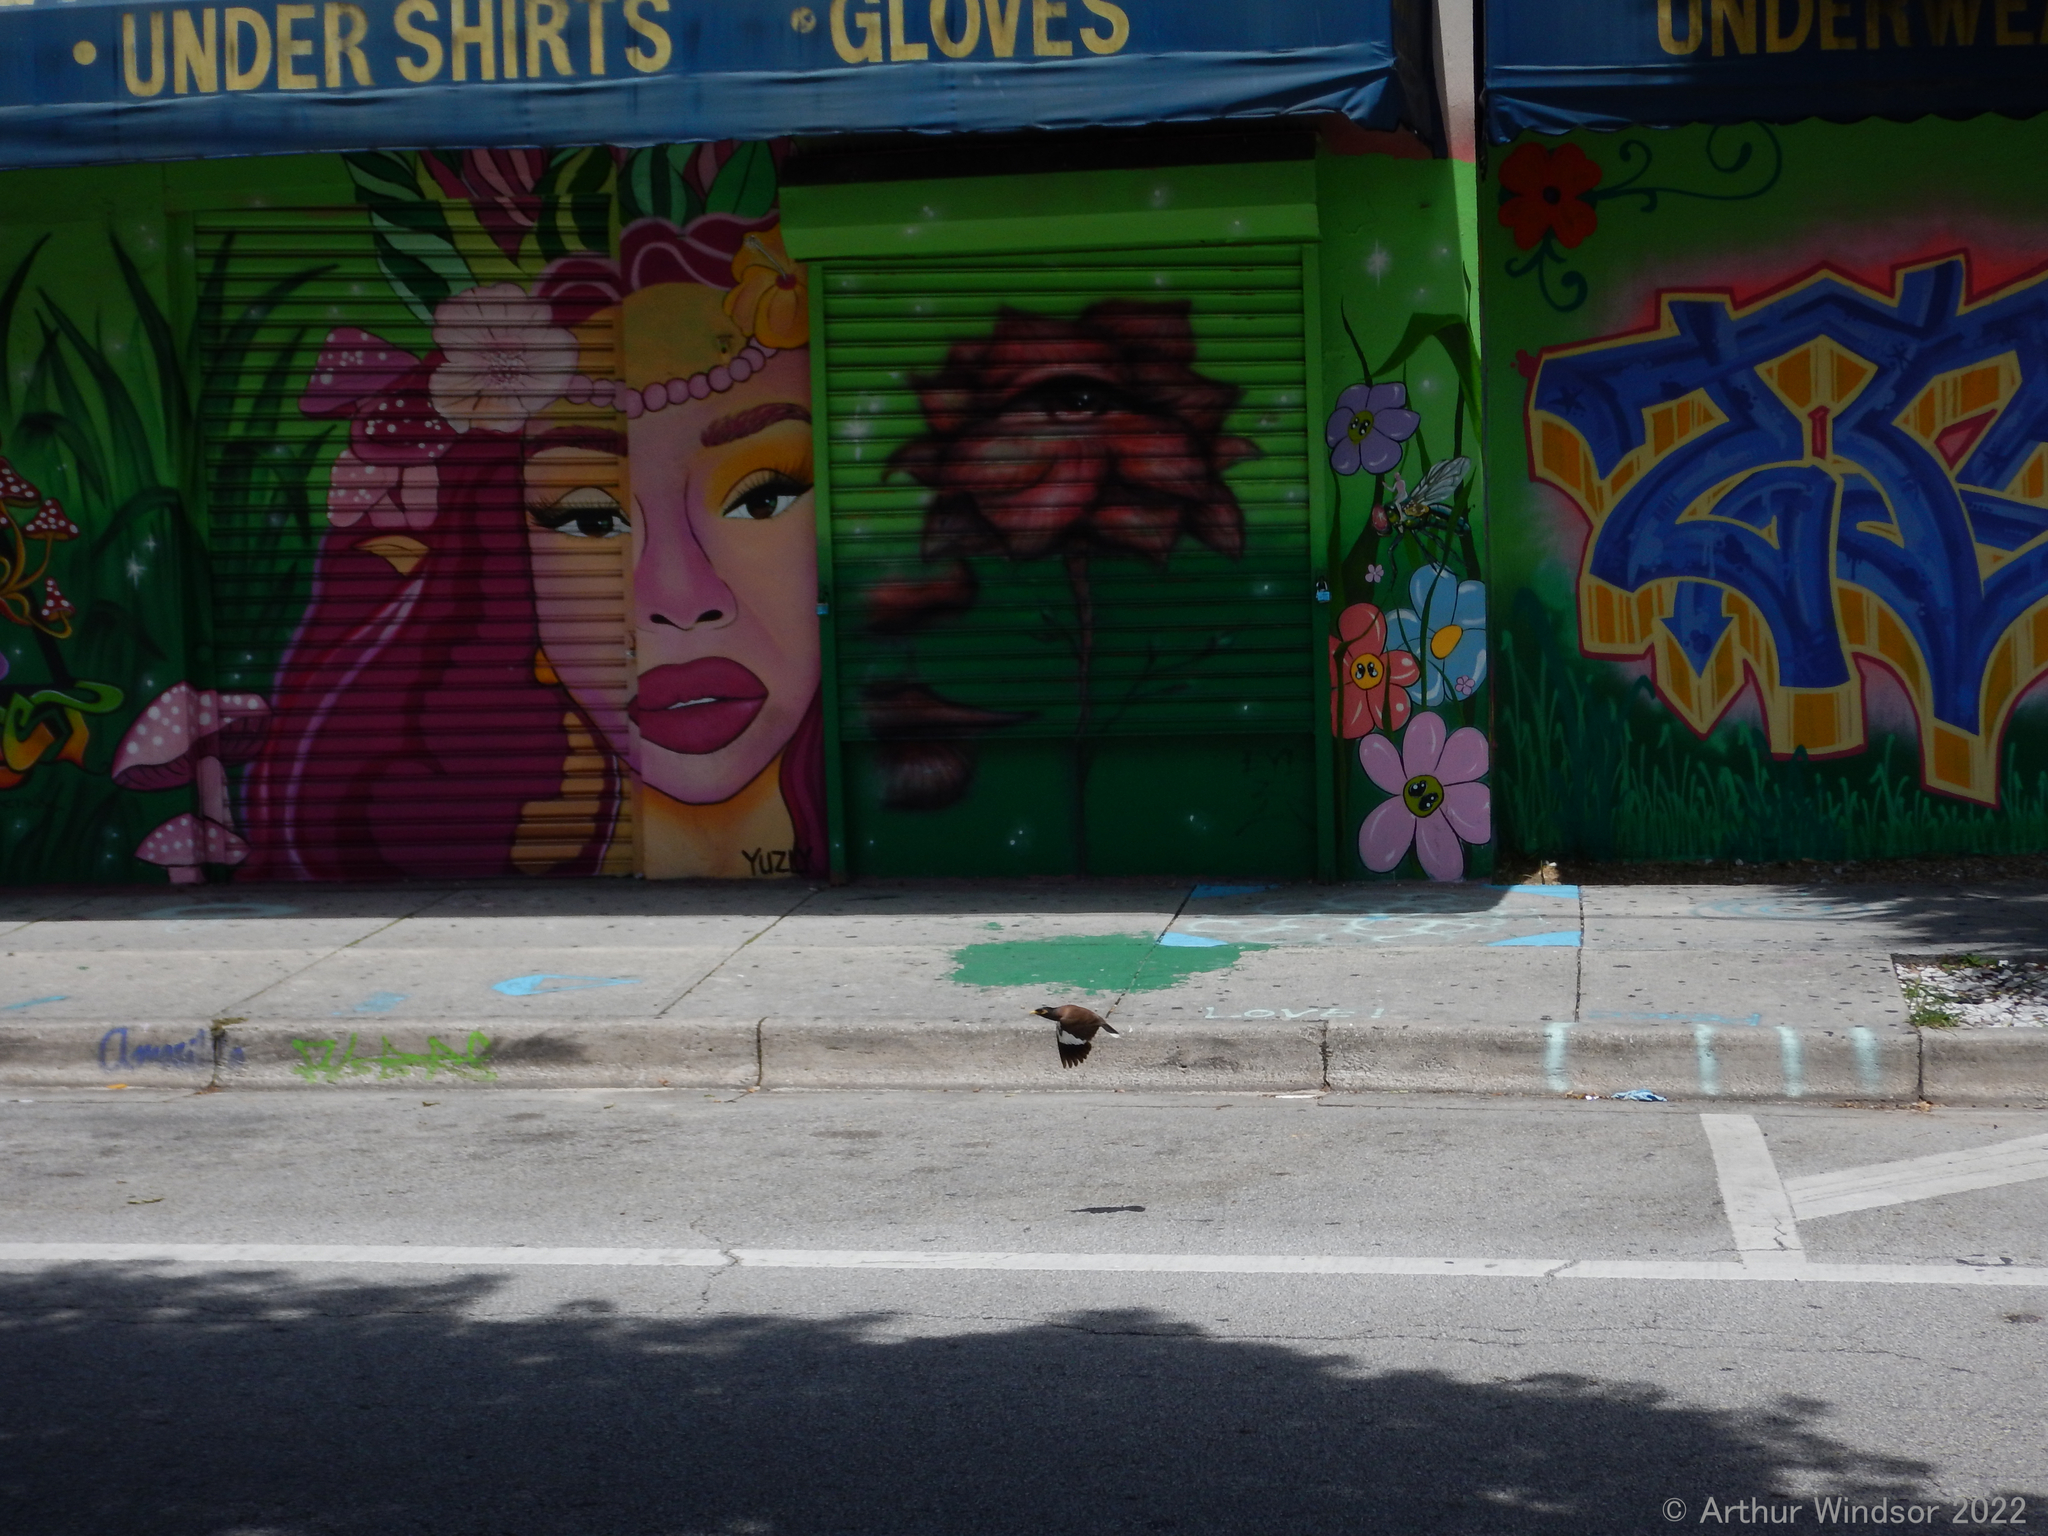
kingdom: Animalia
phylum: Chordata
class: Aves
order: Passeriformes
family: Sturnidae
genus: Acridotheres
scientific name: Acridotheres tristis
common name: Common myna
